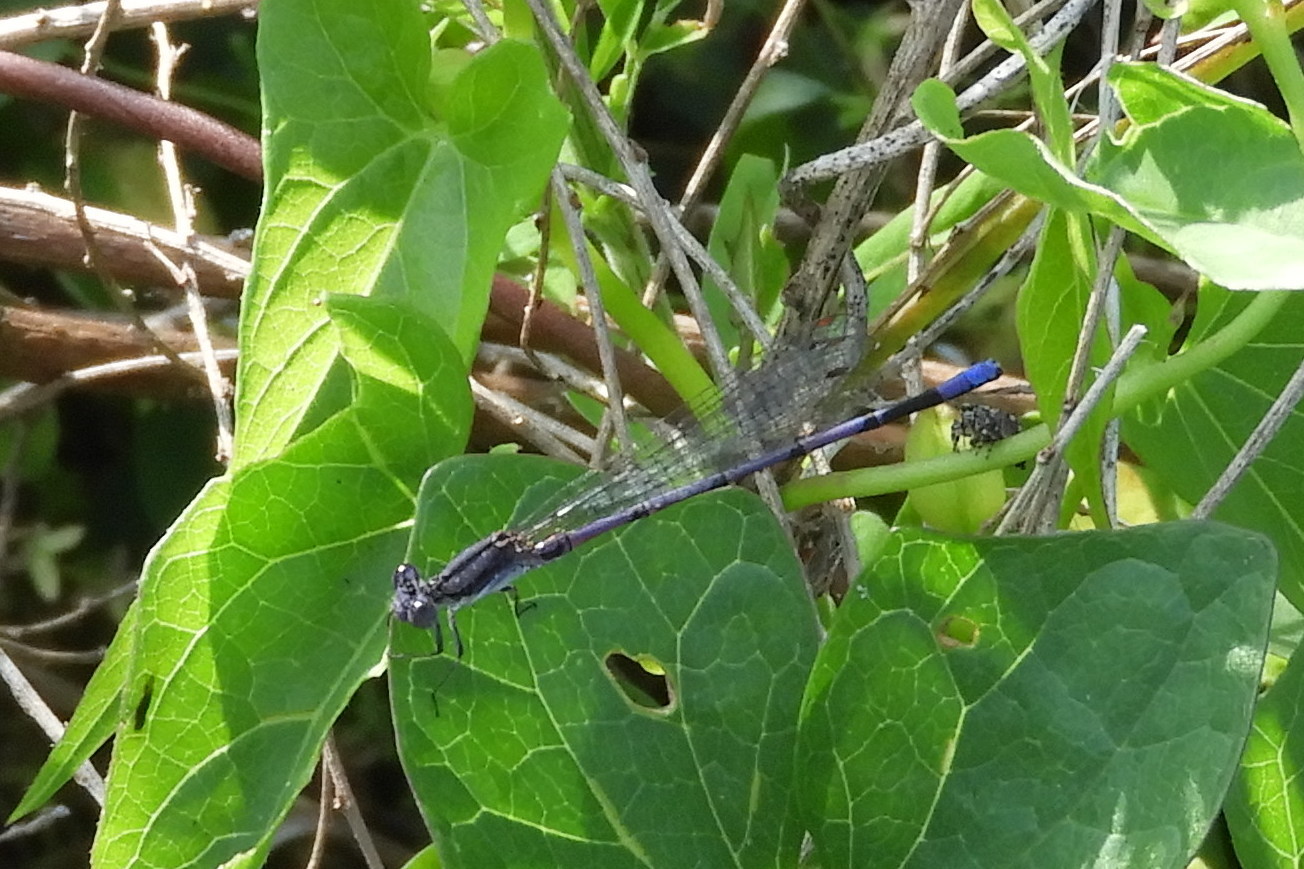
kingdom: Animalia
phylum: Arthropoda
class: Insecta
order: Odonata
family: Coenagrionidae
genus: Argia
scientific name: Argia fumipennis
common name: Variable dancer
